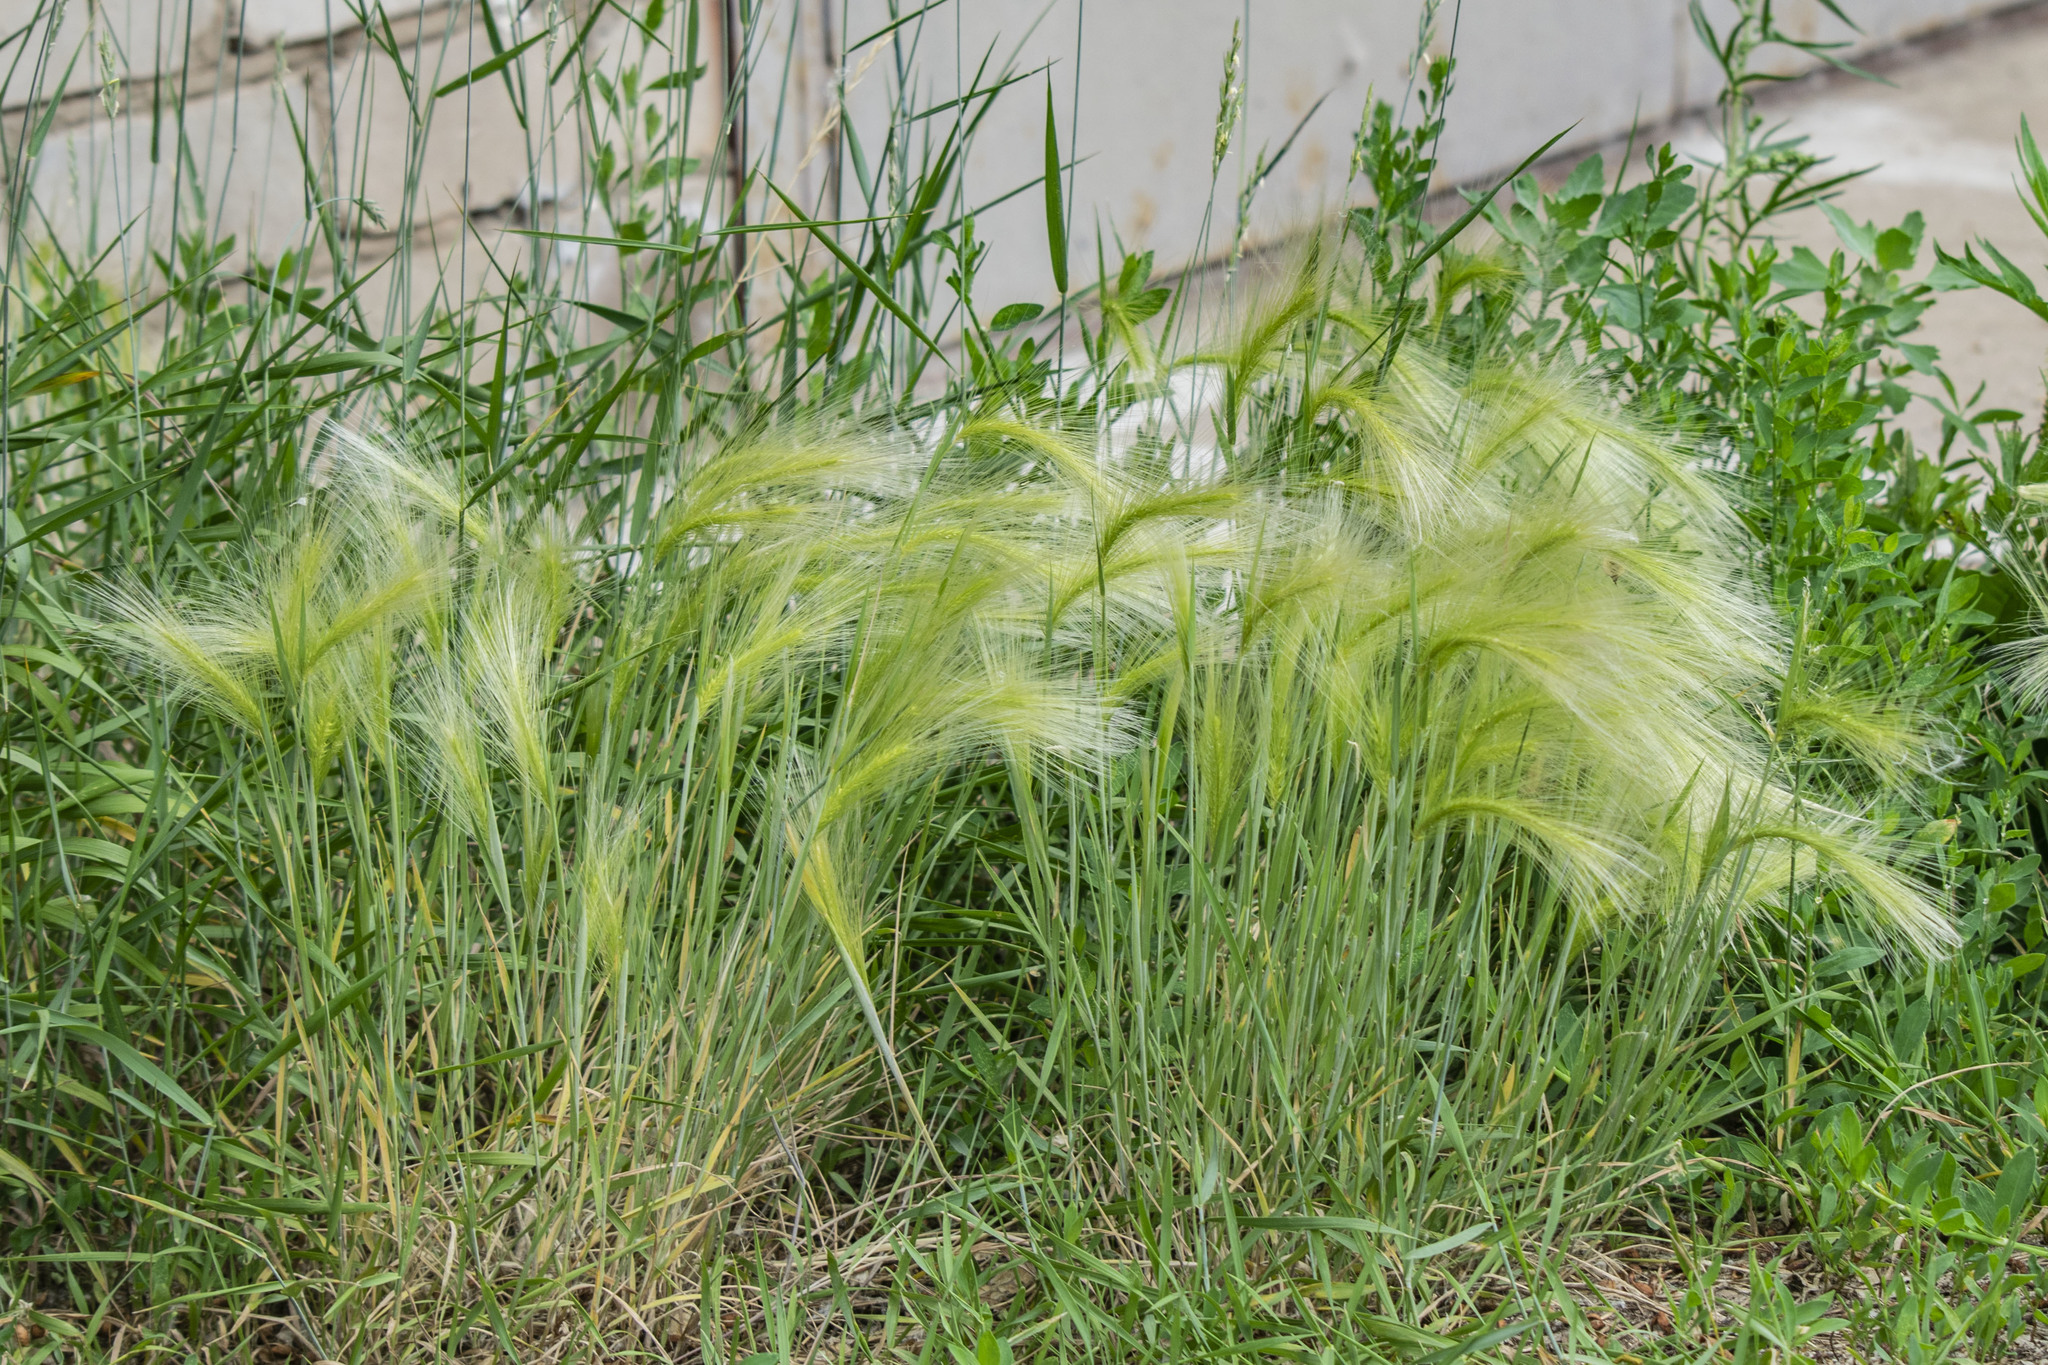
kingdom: Plantae
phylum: Tracheophyta
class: Liliopsida
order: Poales
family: Poaceae
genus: Hordeum
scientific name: Hordeum jubatum
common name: Foxtail barley
